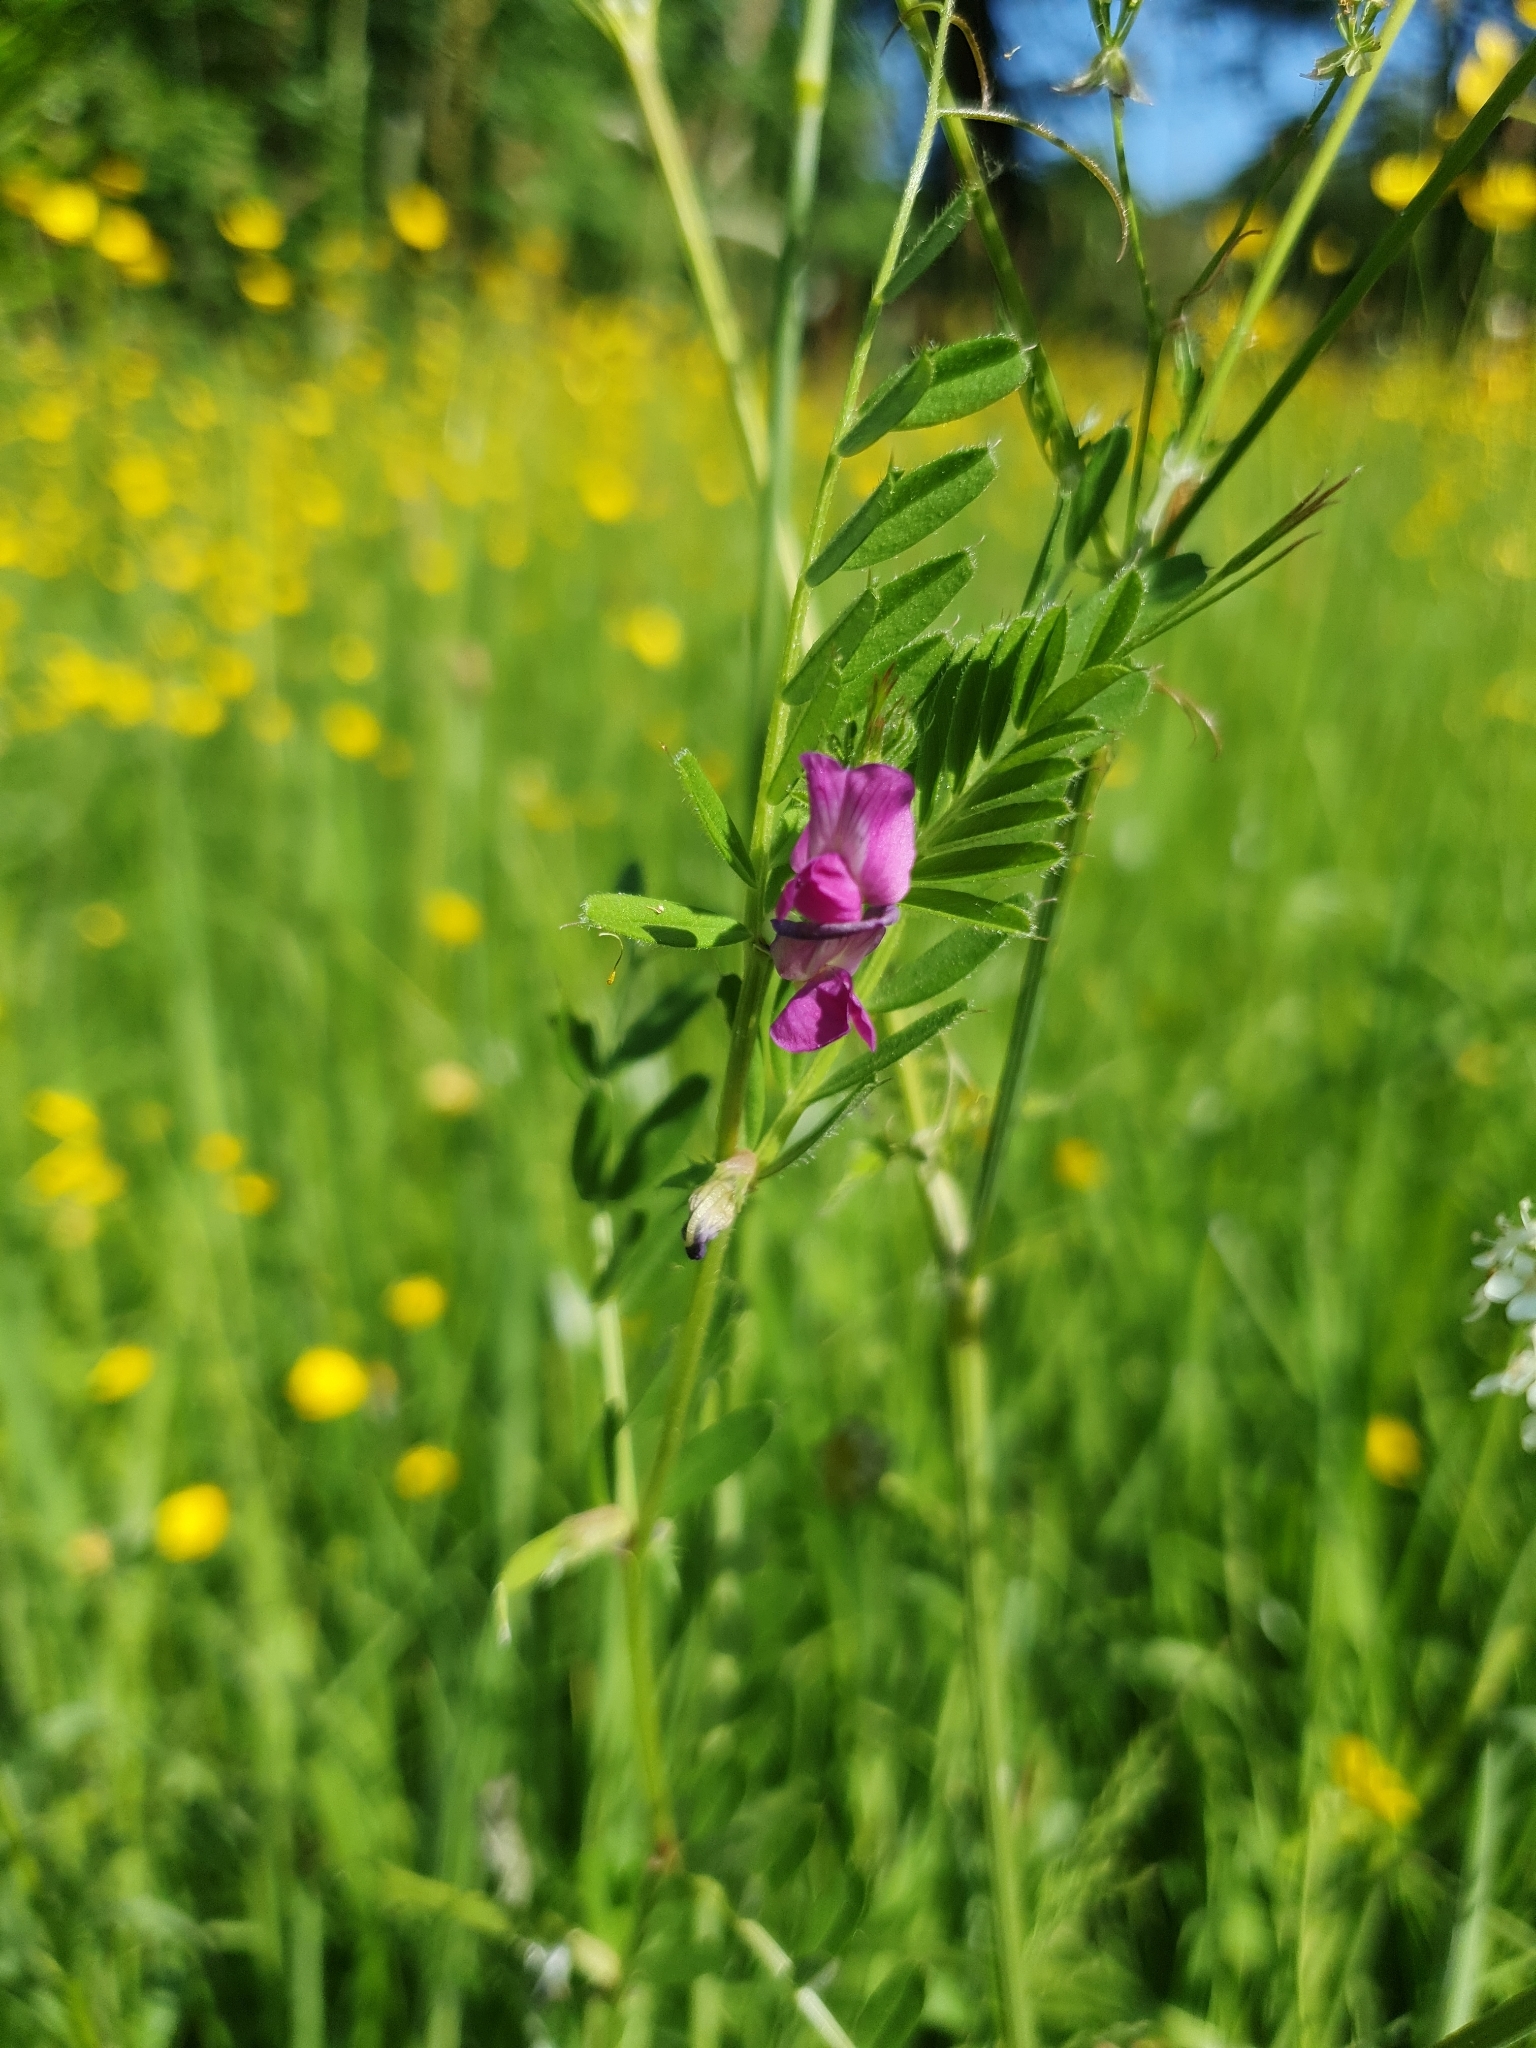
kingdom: Plantae
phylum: Tracheophyta
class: Magnoliopsida
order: Fabales
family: Fabaceae
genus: Vicia
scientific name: Vicia sativa
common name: Garden vetch
